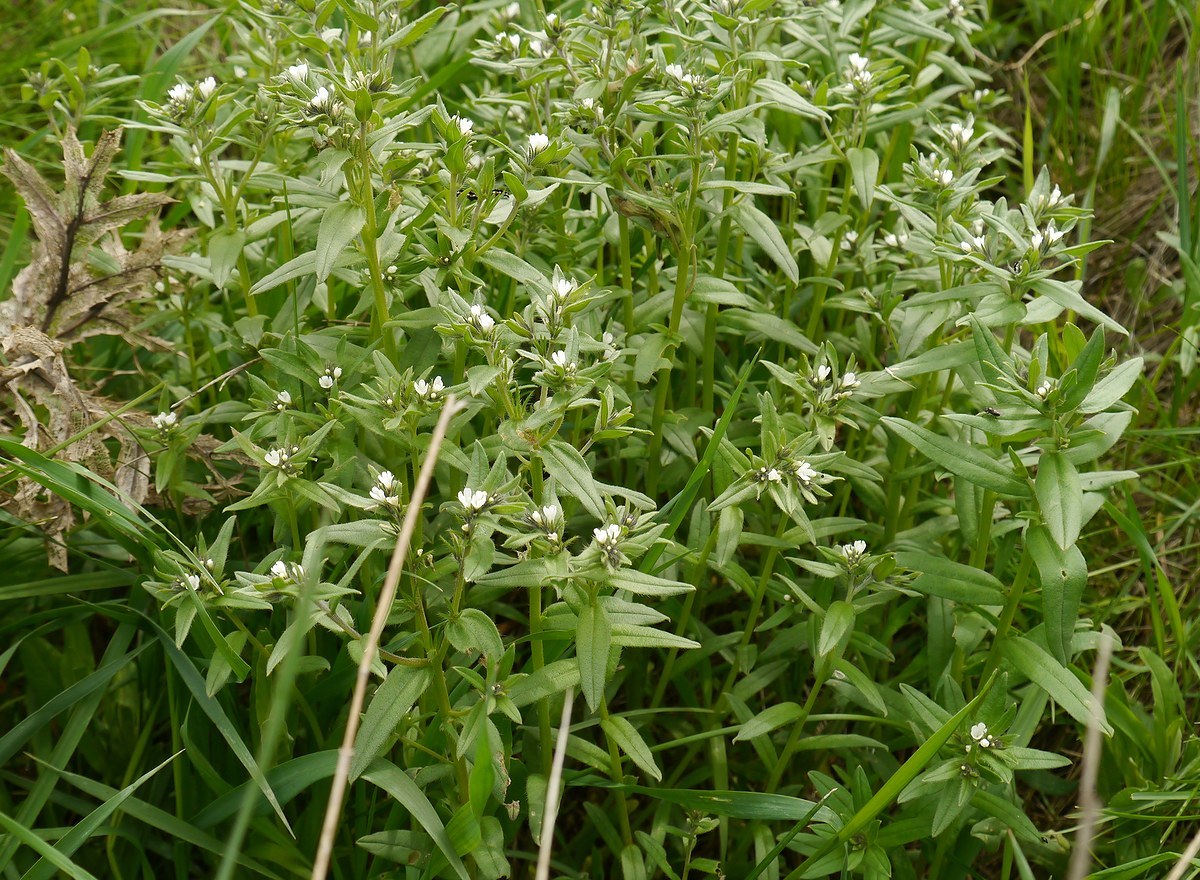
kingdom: Plantae
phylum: Tracheophyta
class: Magnoliopsida
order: Boraginales
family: Boraginaceae
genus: Buglossoides
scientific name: Buglossoides arvensis
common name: Corn gromwell
